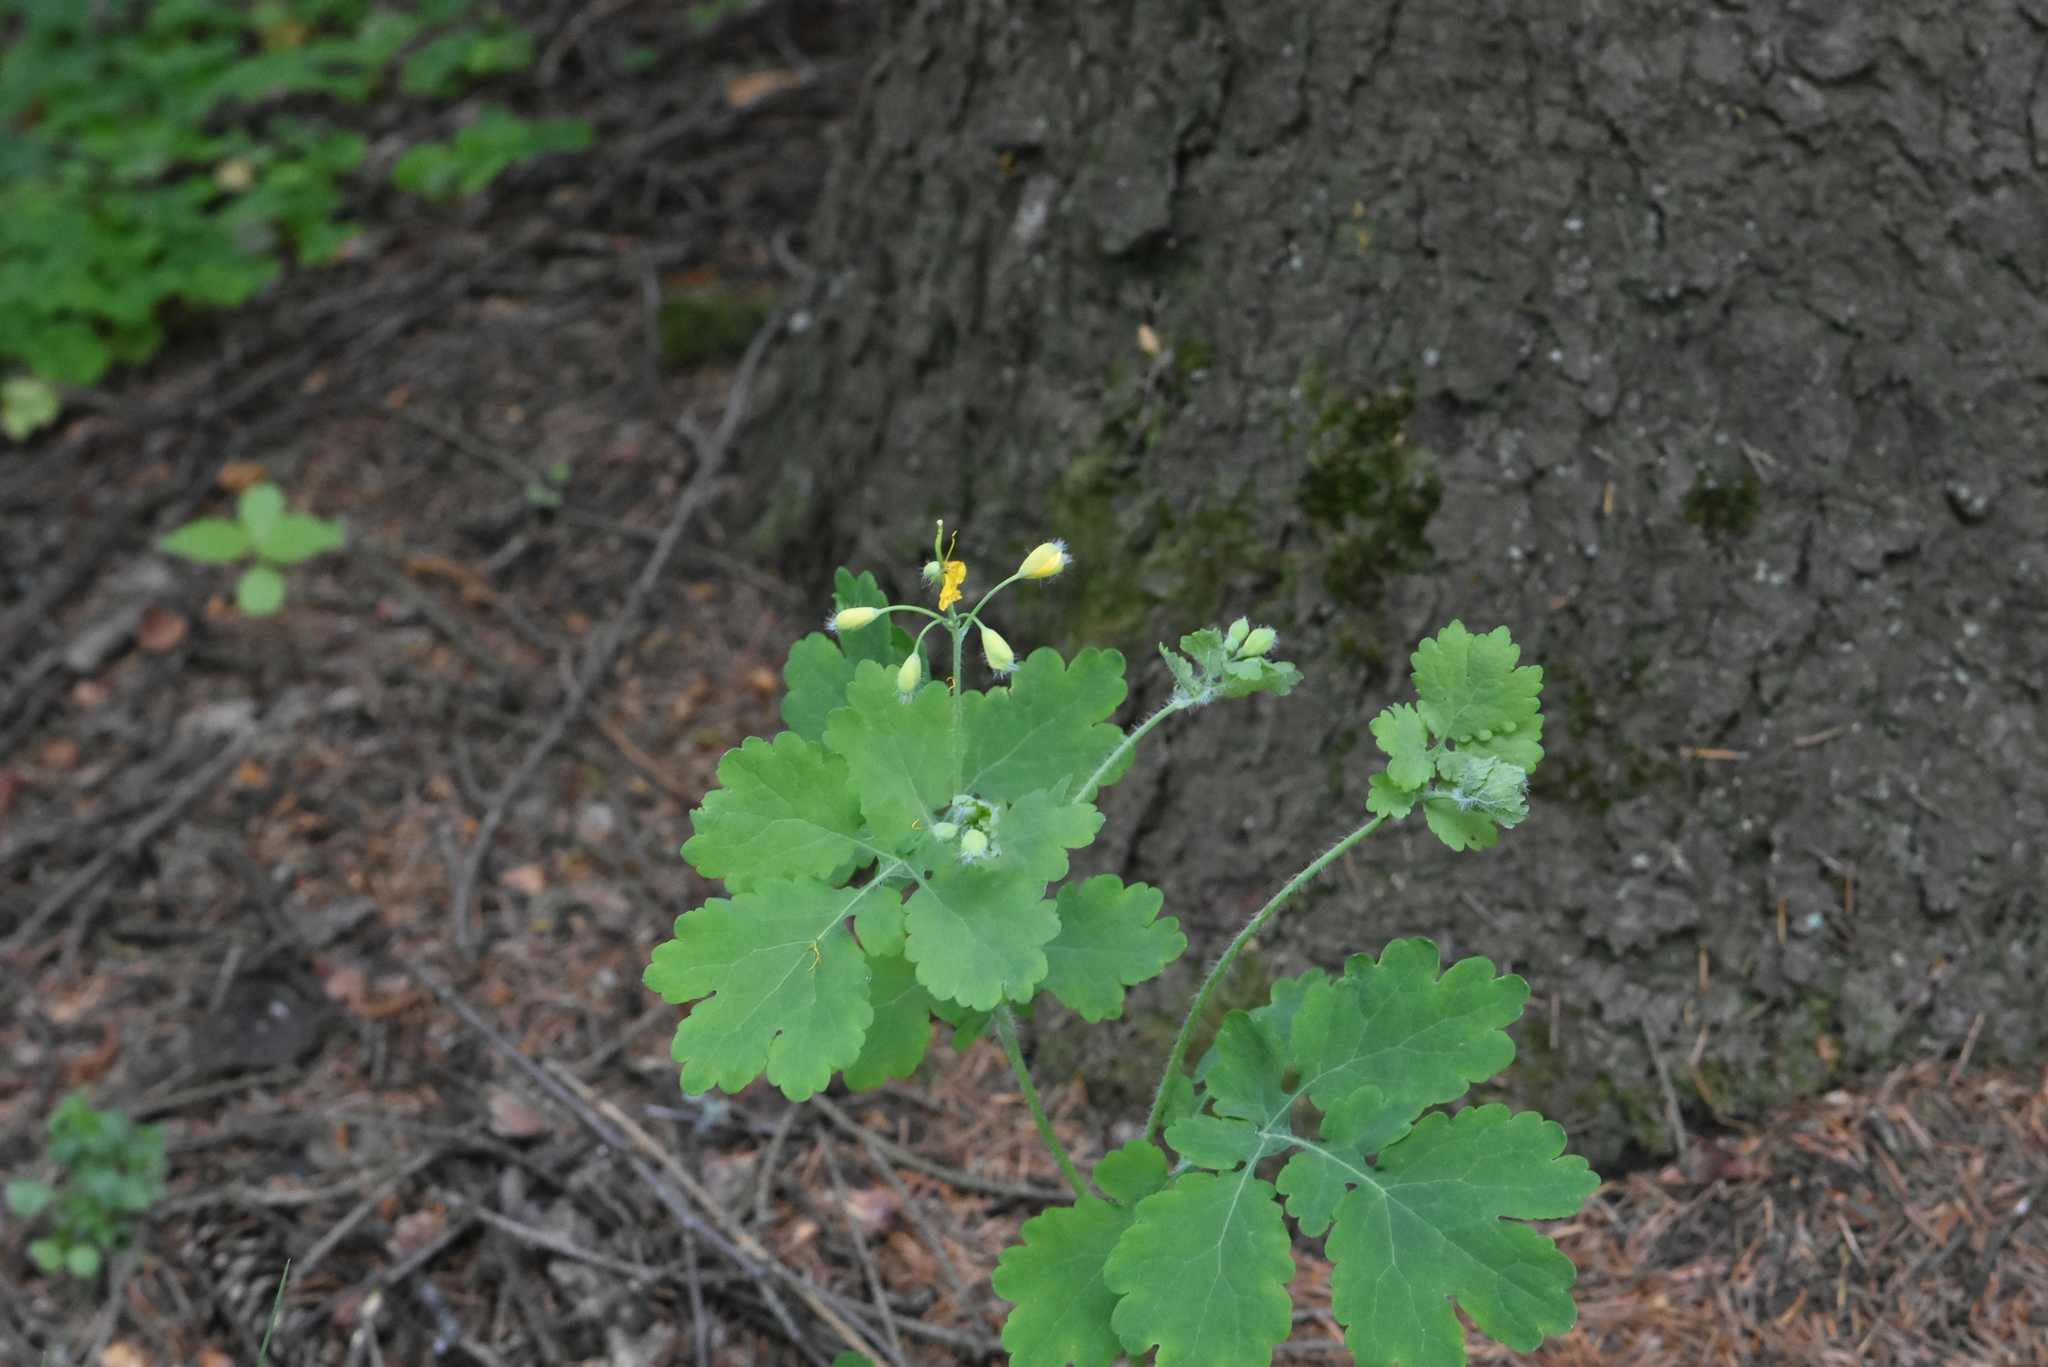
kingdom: Plantae
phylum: Tracheophyta
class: Magnoliopsida
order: Ranunculales
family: Papaveraceae
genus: Chelidonium
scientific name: Chelidonium majus
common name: Greater celandine
